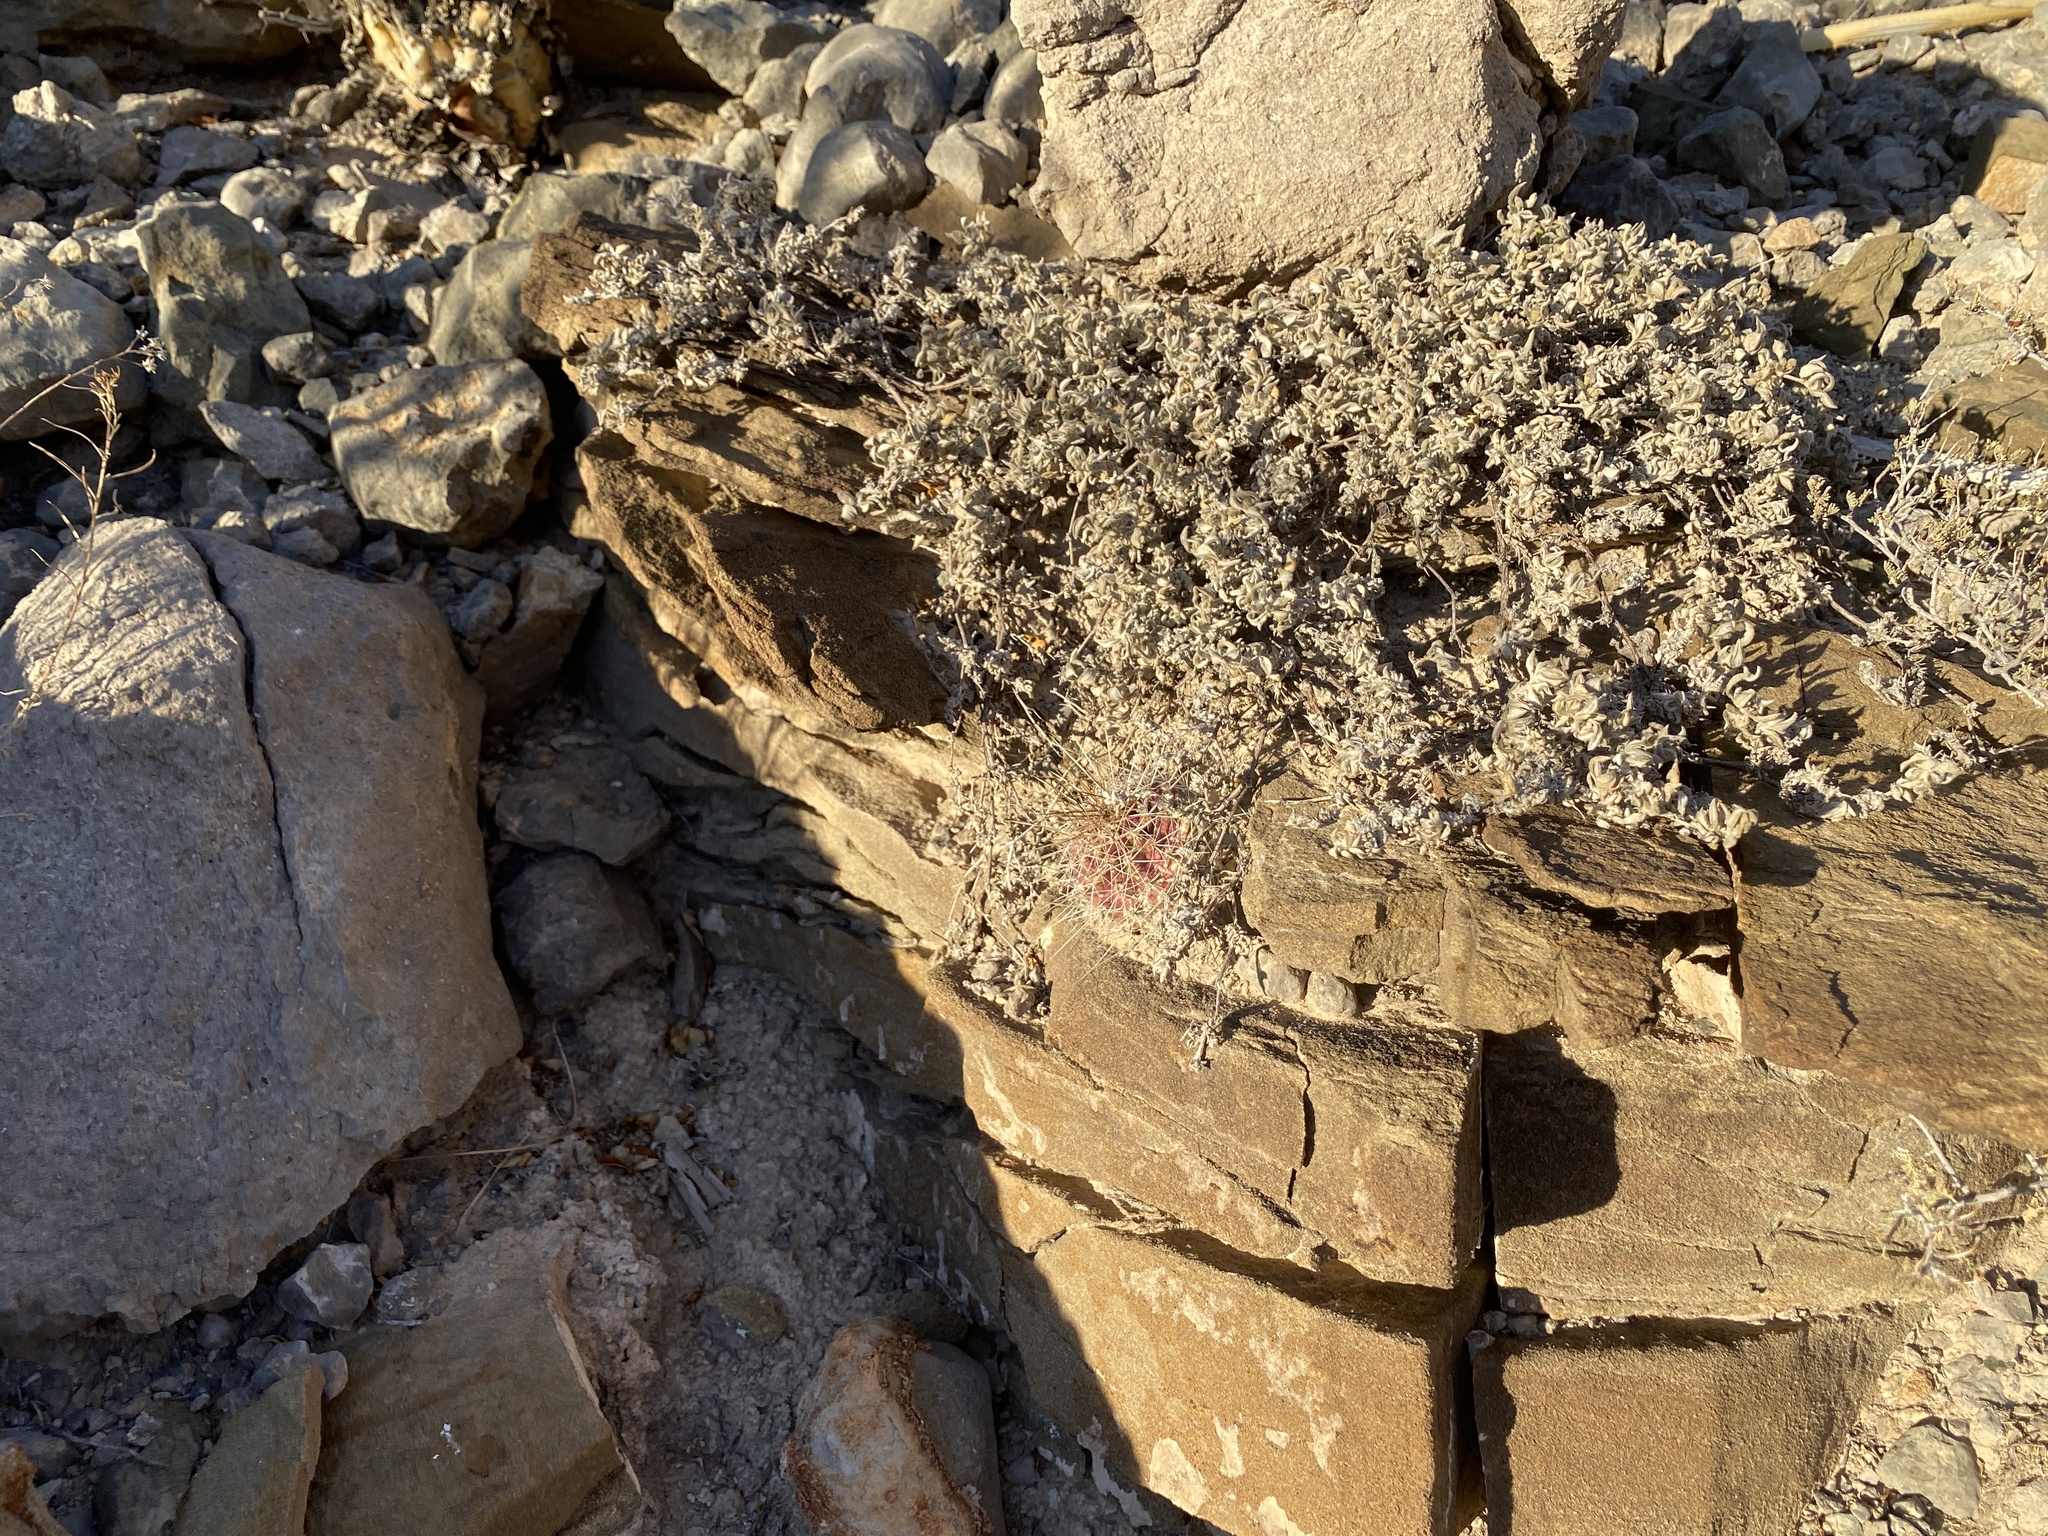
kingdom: Plantae
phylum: Tracheophyta
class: Magnoliopsida
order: Caryophyllales
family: Cactaceae
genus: Echinocereus
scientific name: Echinocereus stramineus
